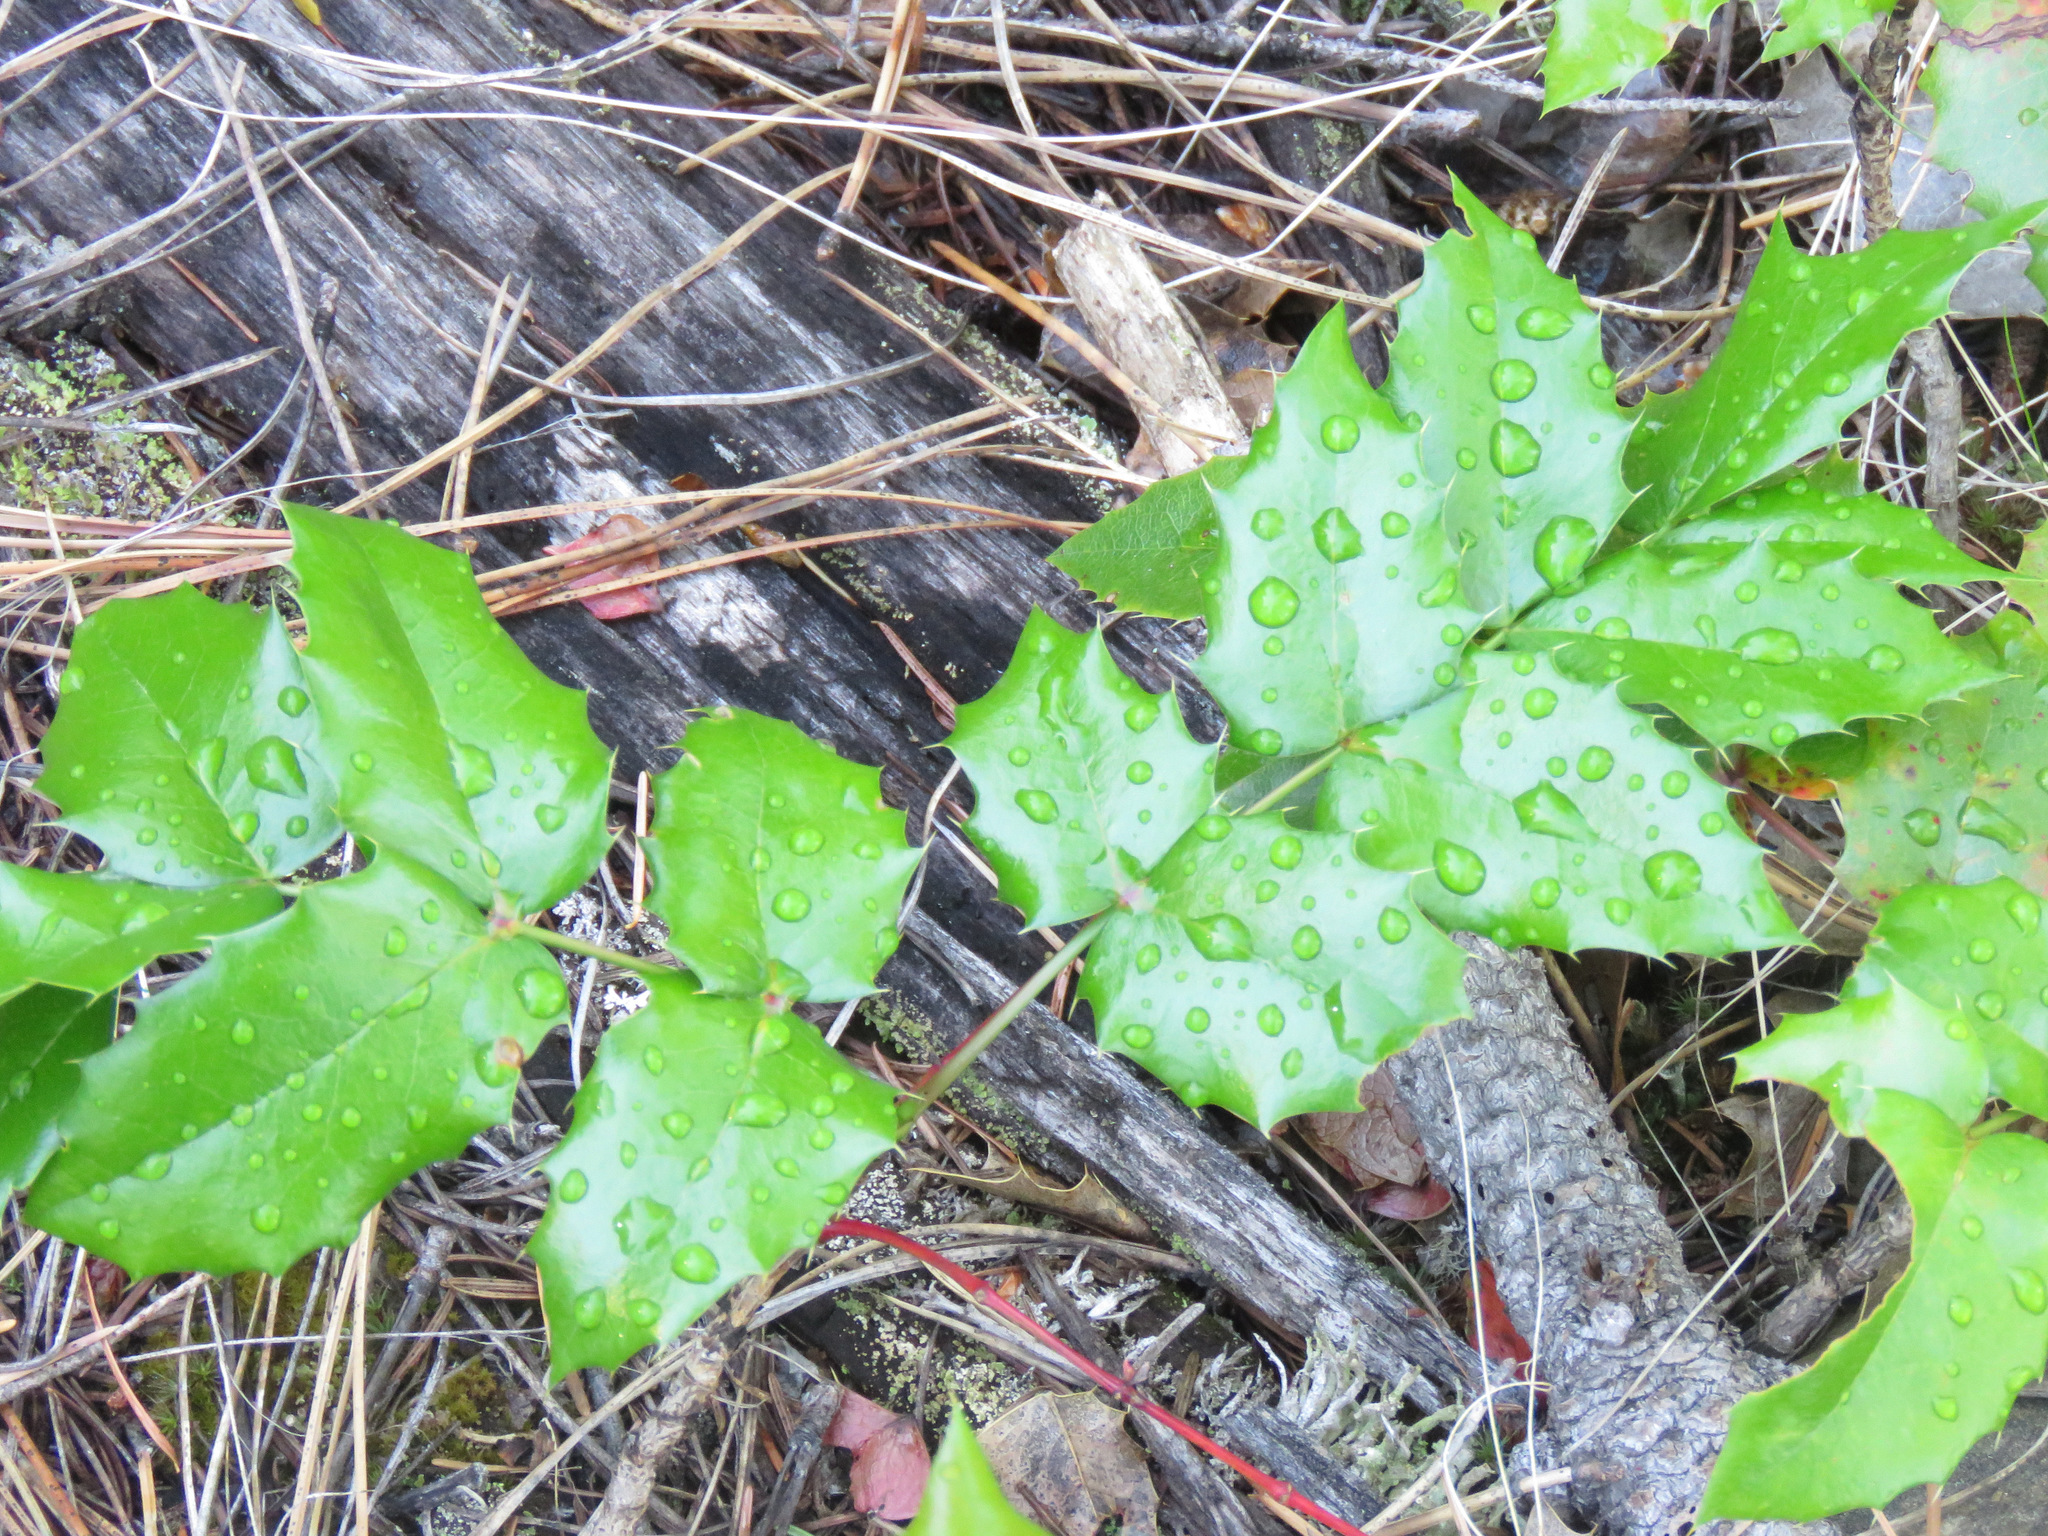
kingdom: Plantae
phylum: Tracheophyta
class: Magnoliopsida
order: Ranunculales
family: Berberidaceae
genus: Mahonia
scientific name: Mahonia aquifolium
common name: Oregon-grape
